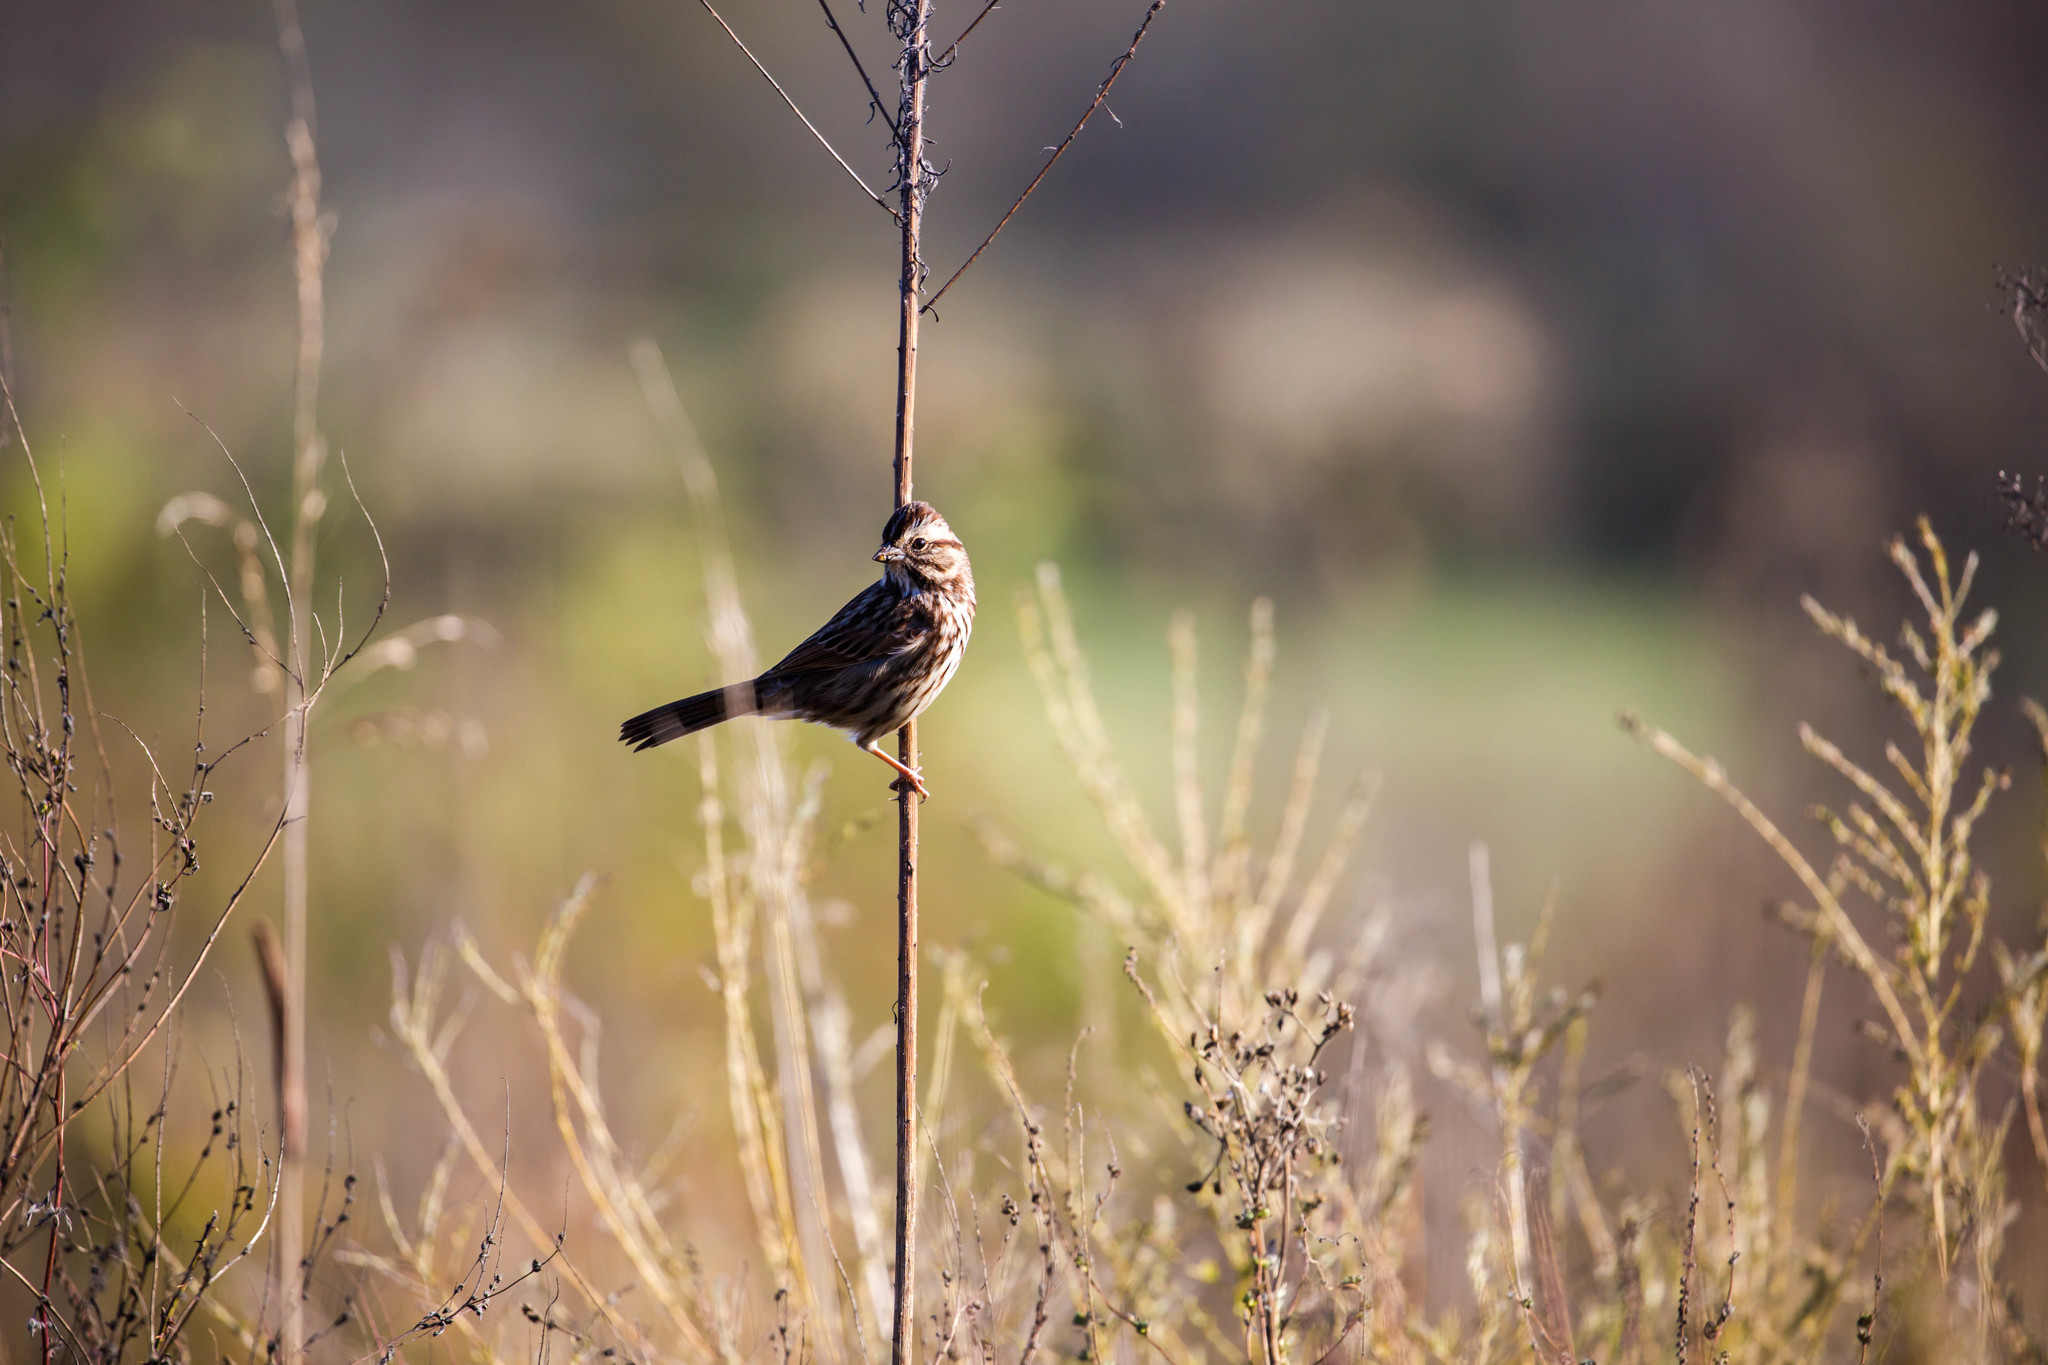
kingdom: Animalia
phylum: Chordata
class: Aves
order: Passeriformes
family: Passerellidae
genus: Melospiza
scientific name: Melospiza melodia
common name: Song sparrow
